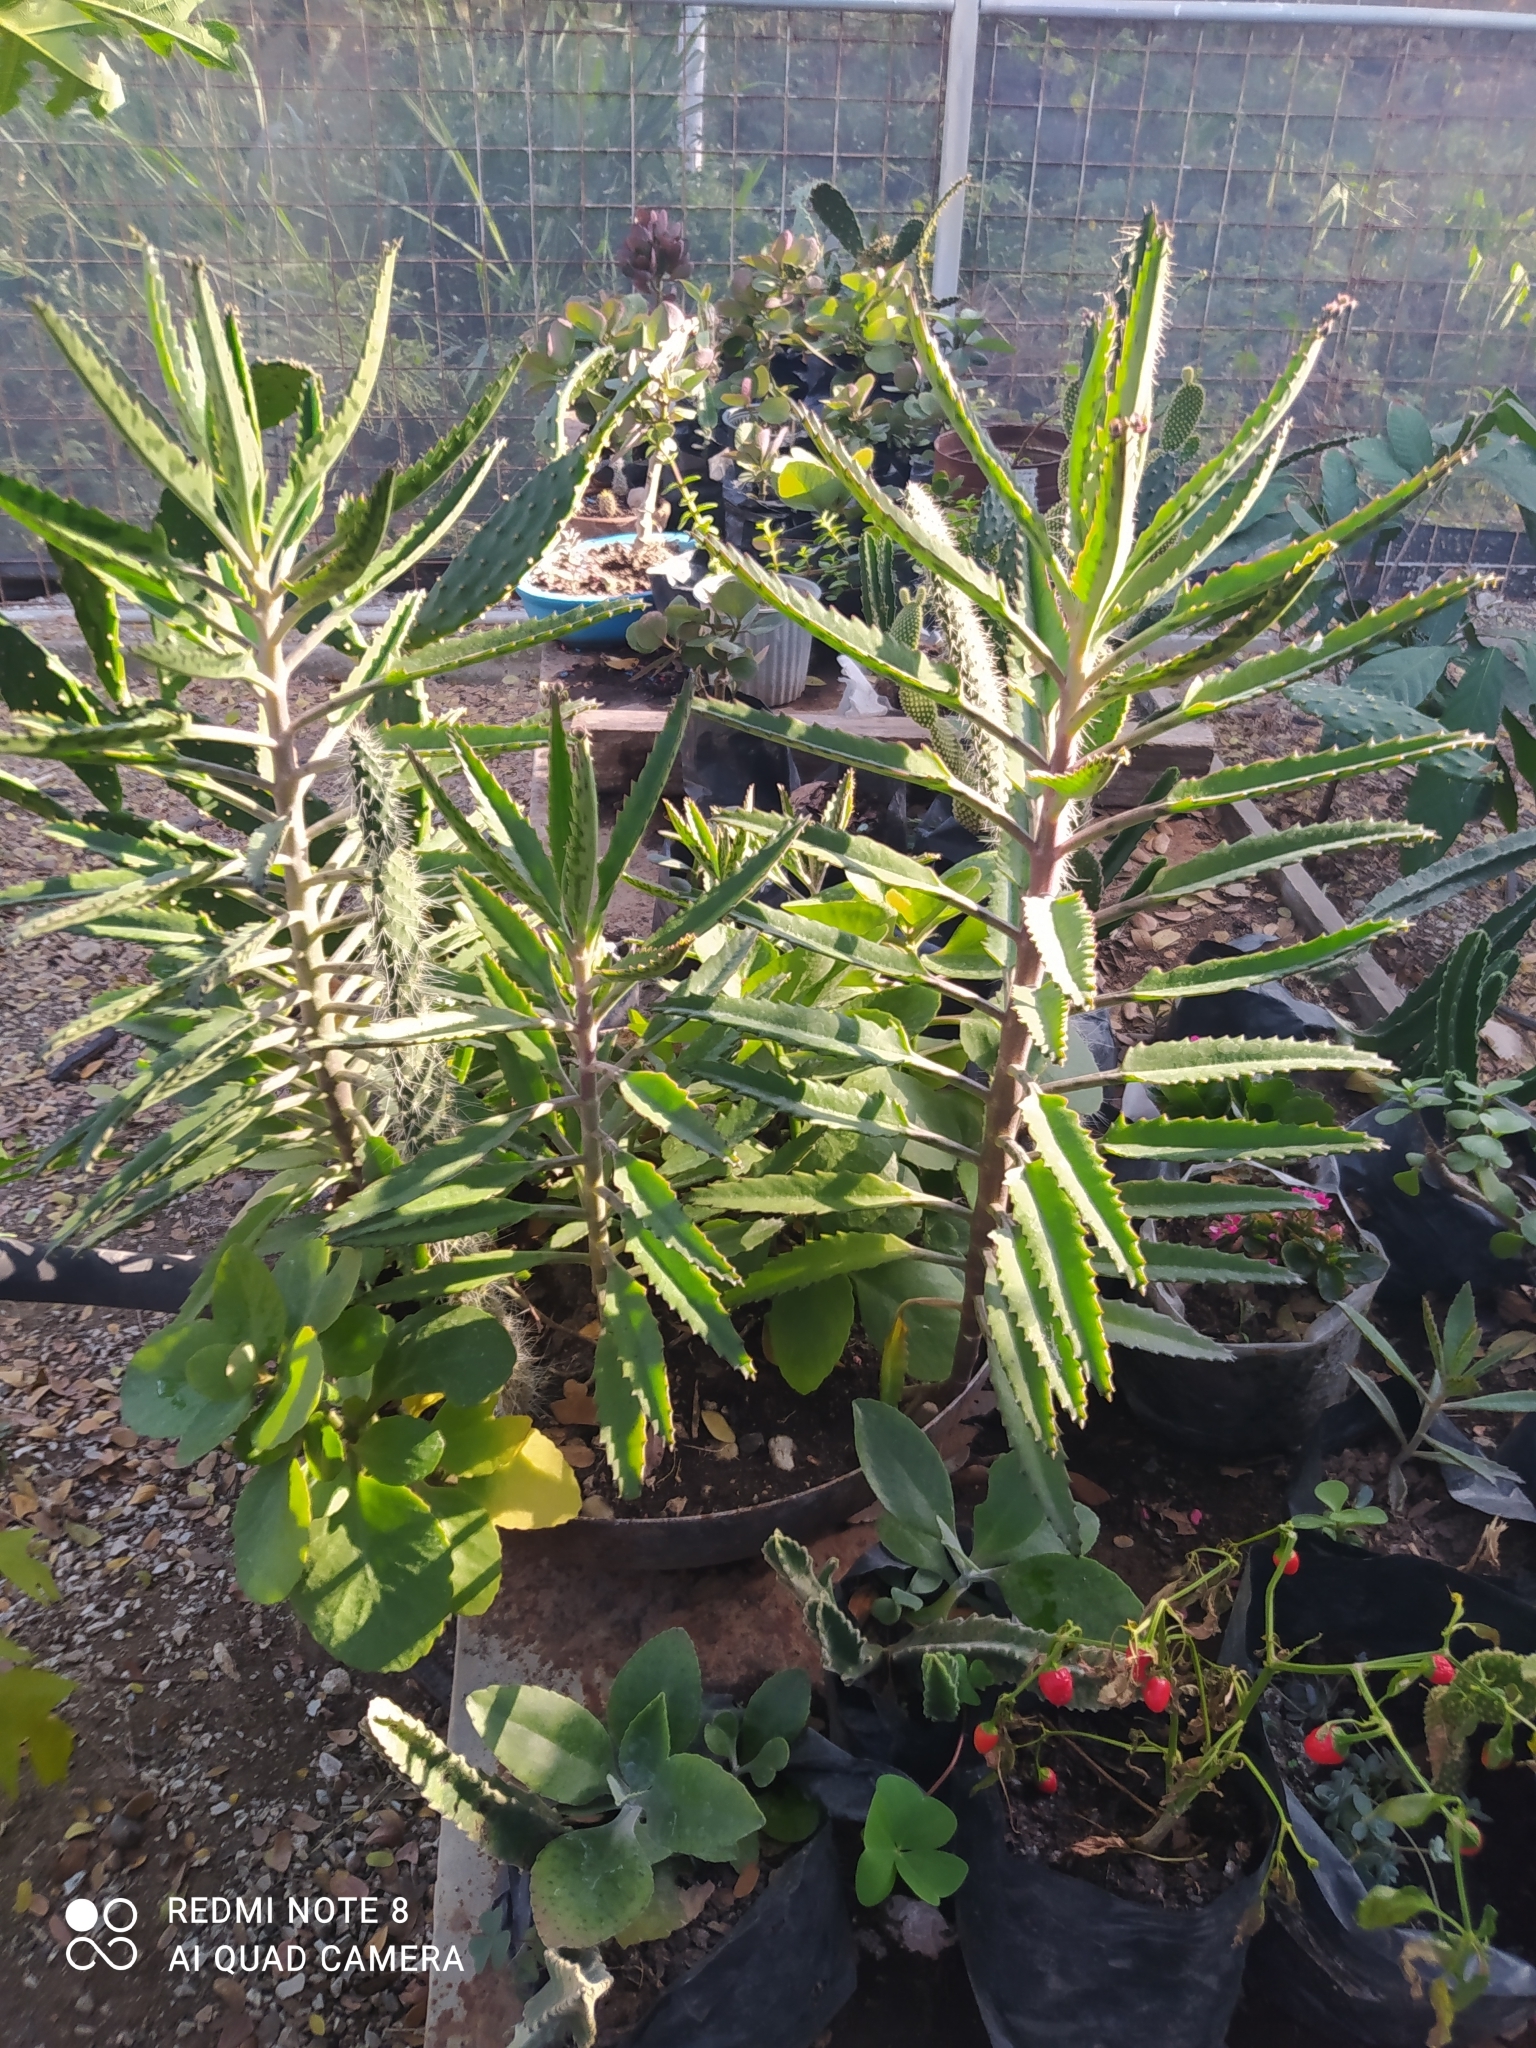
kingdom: Plantae
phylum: Tracheophyta
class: Magnoliopsida
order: Saxifragales
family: Crassulaceae
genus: Kalanchoe
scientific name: Kalanchoe houghtonii
